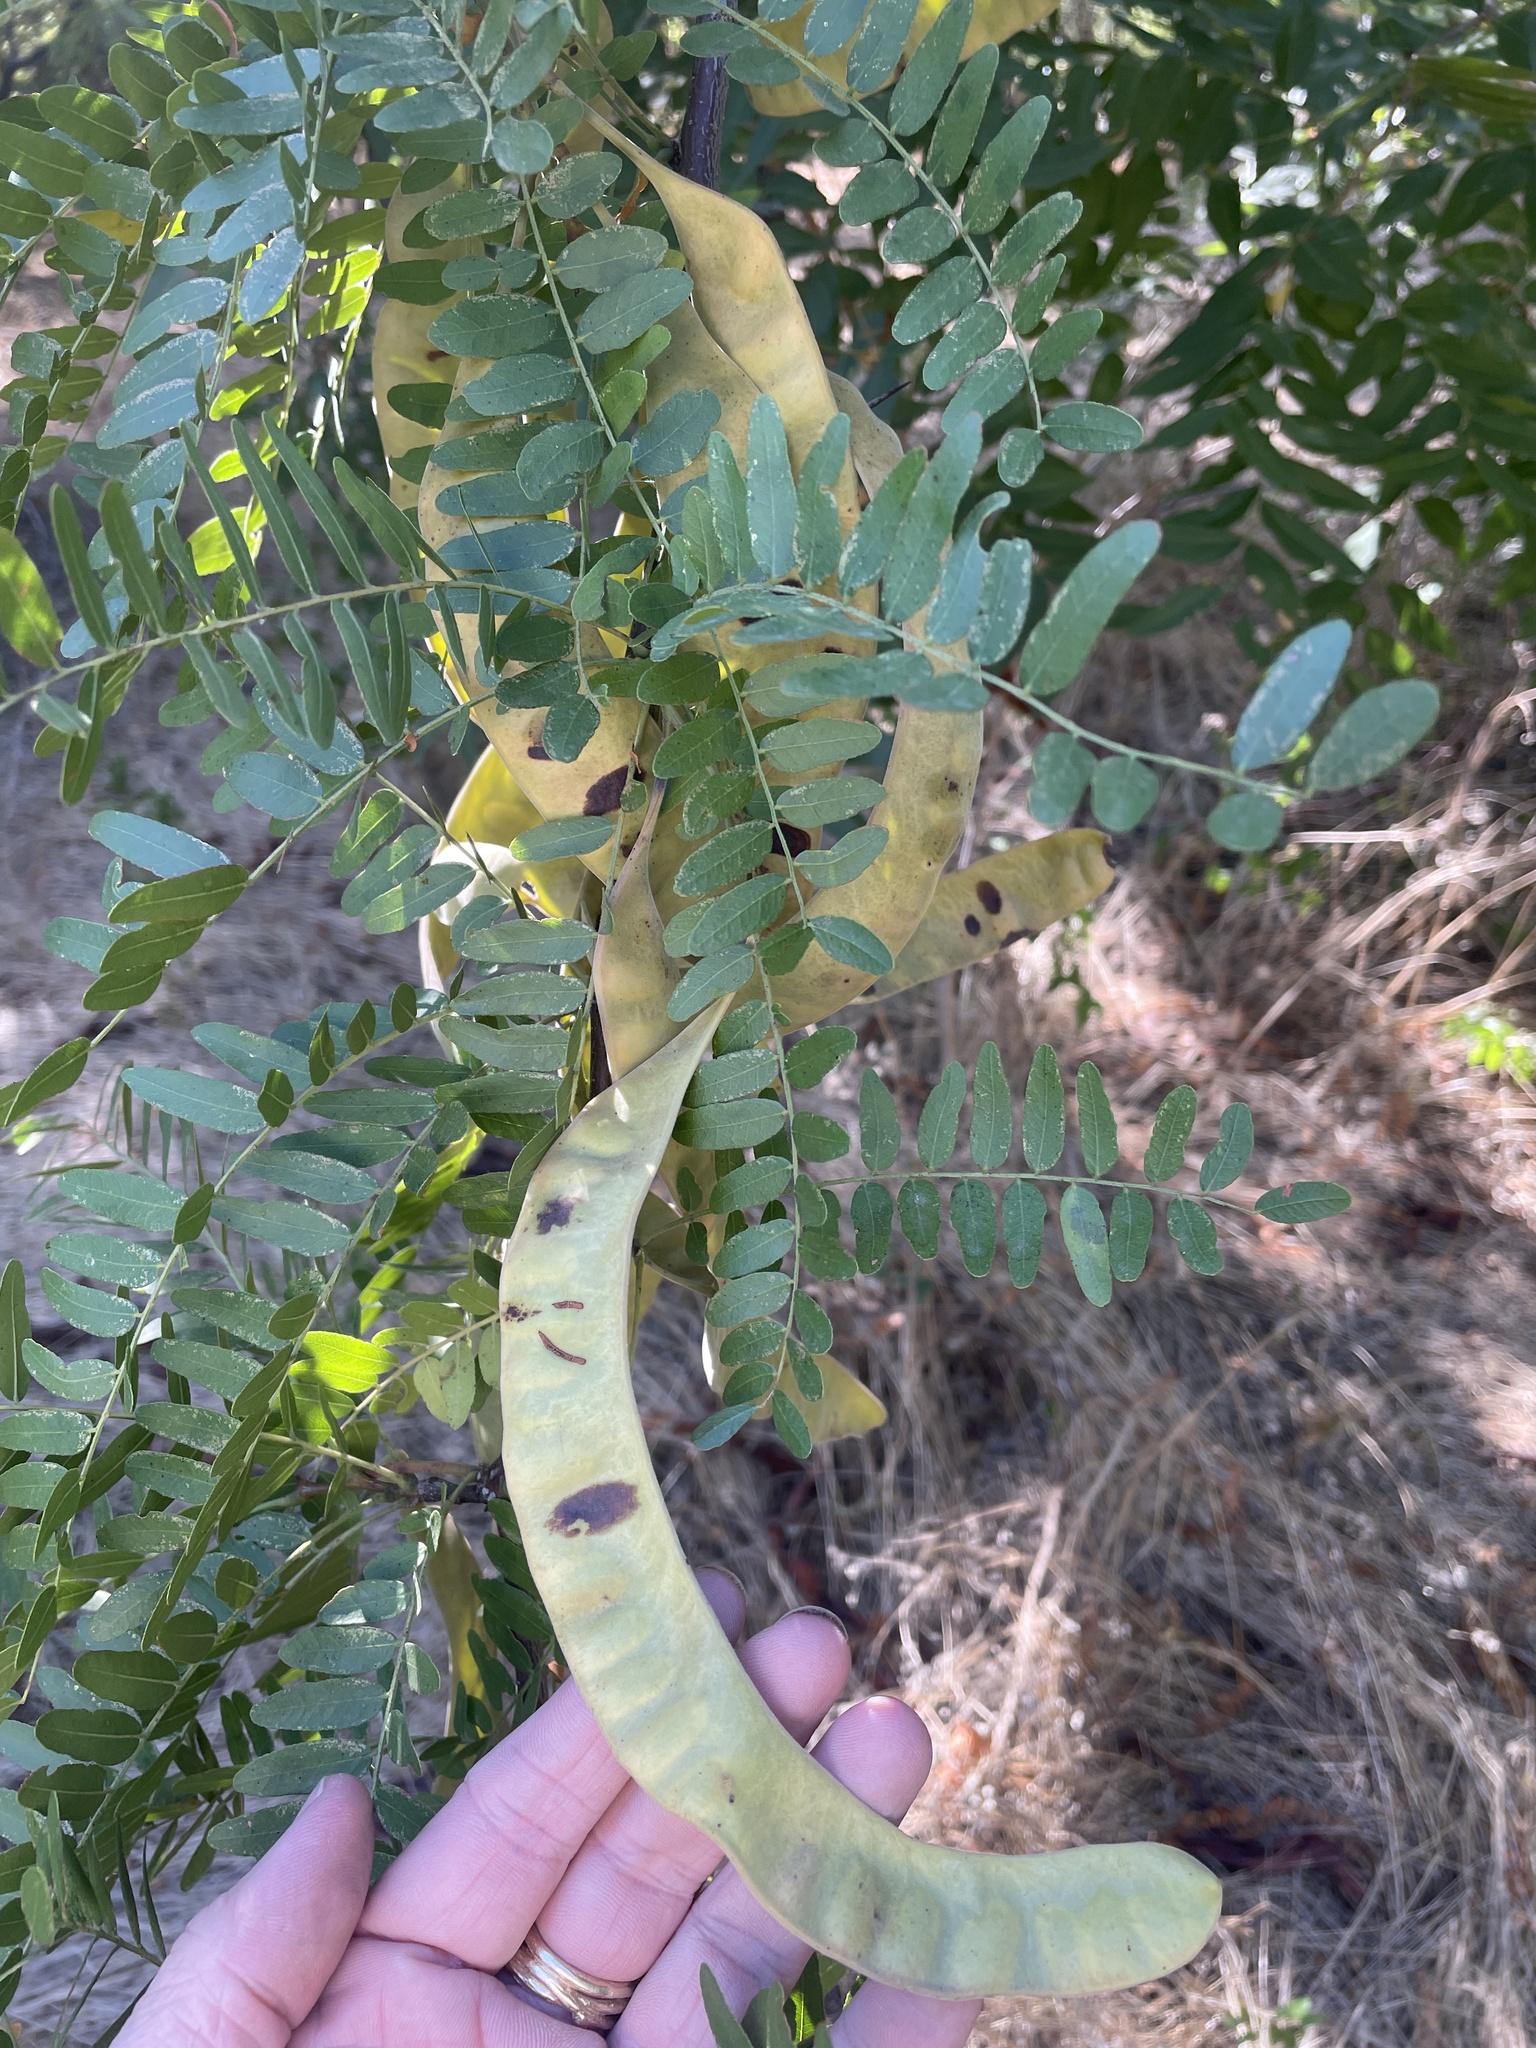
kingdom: Plantae
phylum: Tracheophyta
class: Magnoliopsida
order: Fabales
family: Fabaceae
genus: Gleditsia
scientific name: Gleditsia triacanthos
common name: Common honeylocust
